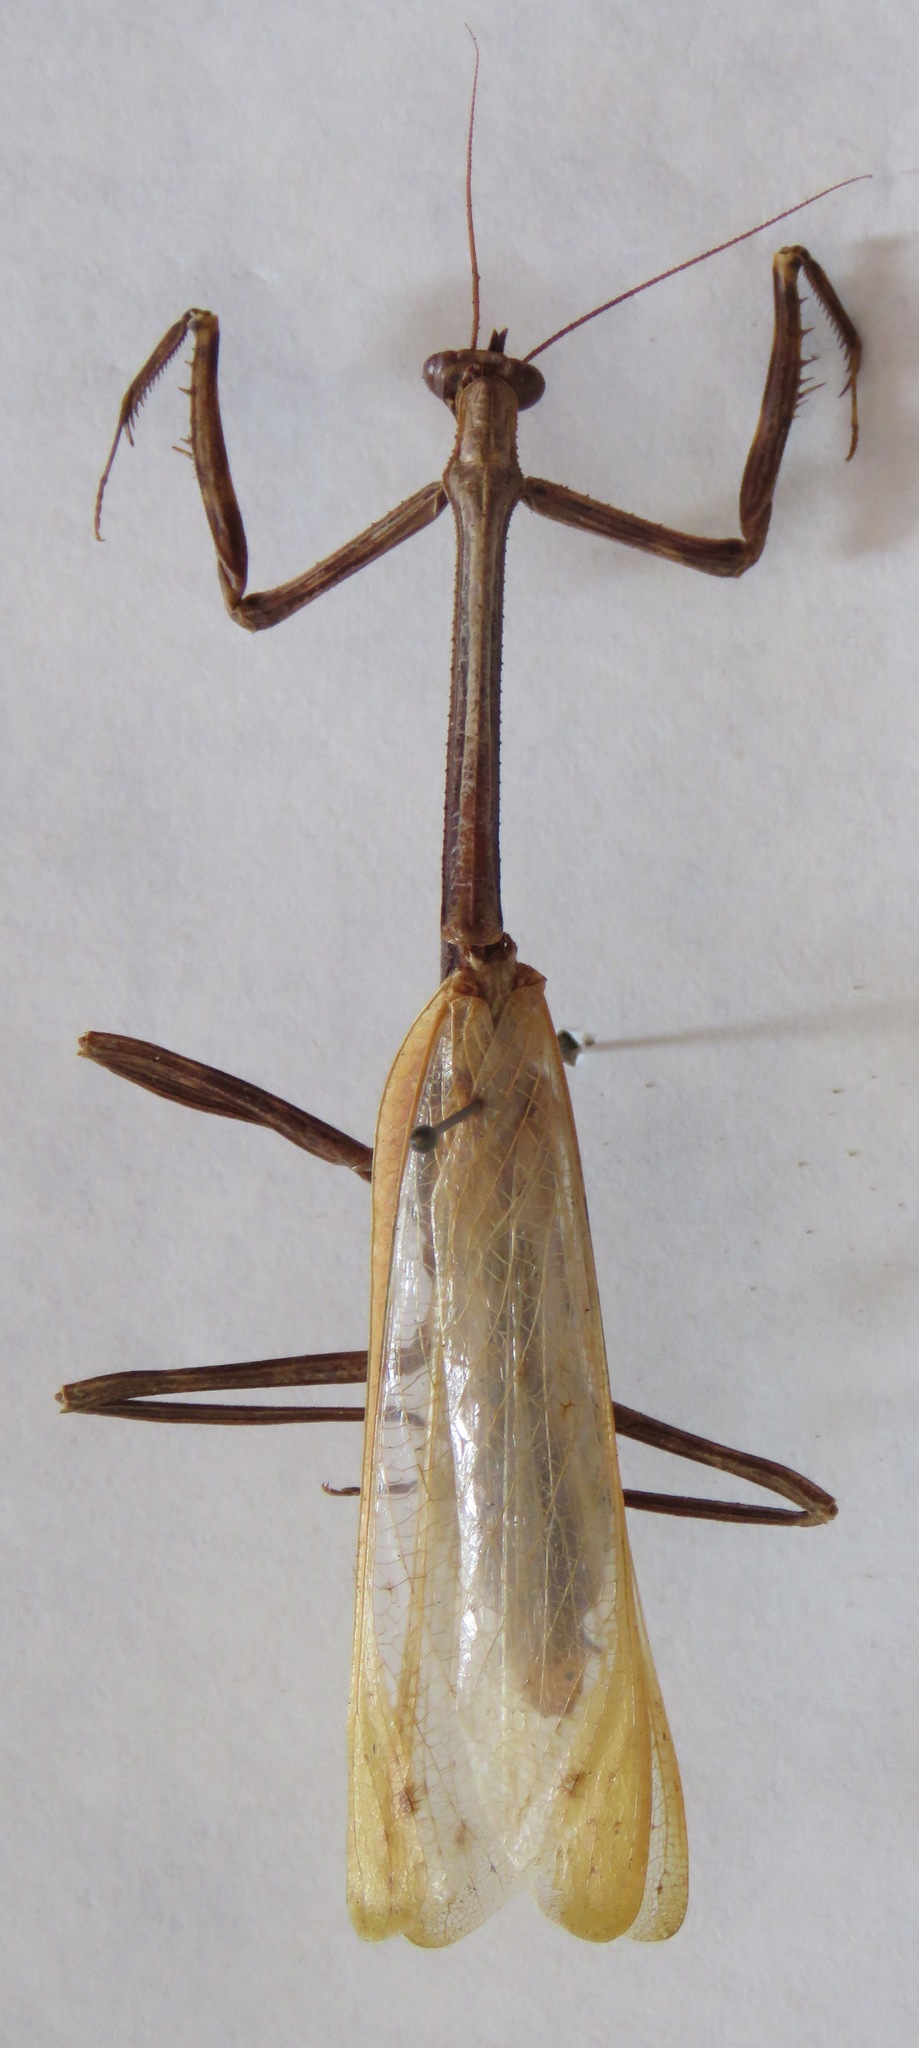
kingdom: Animalia
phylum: Arthropoda
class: Insecta
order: Mantodea
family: Mantidae
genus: Pseudovates
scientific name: Pseudovates chlorophaea
